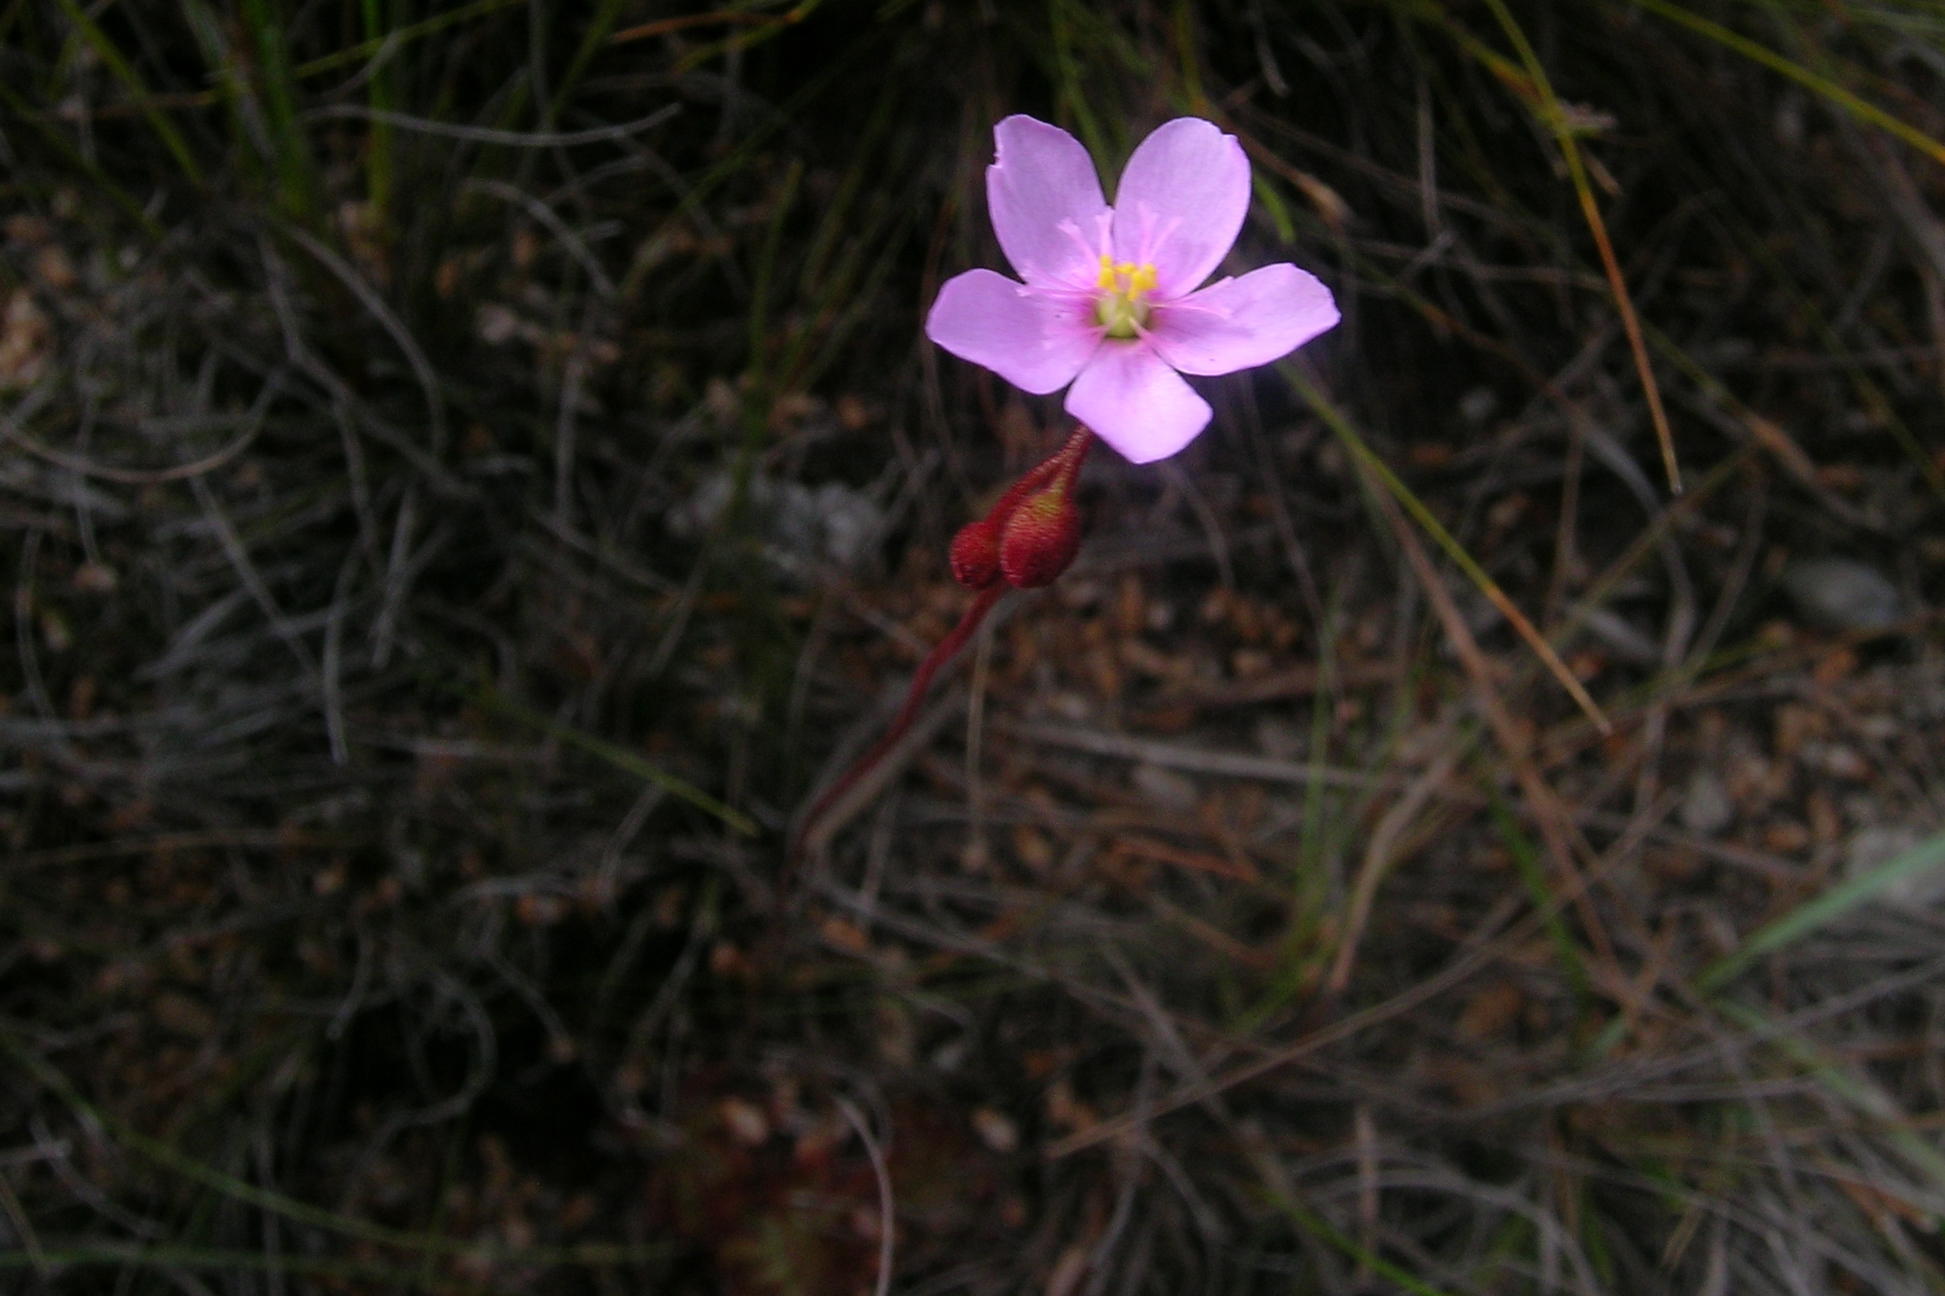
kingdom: Plantae
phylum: Tracheophyta
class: Magnoliopsida
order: Caryophyllales
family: Droseraceae
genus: Drosera
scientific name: Drosera aliciae
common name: Alice sundew
